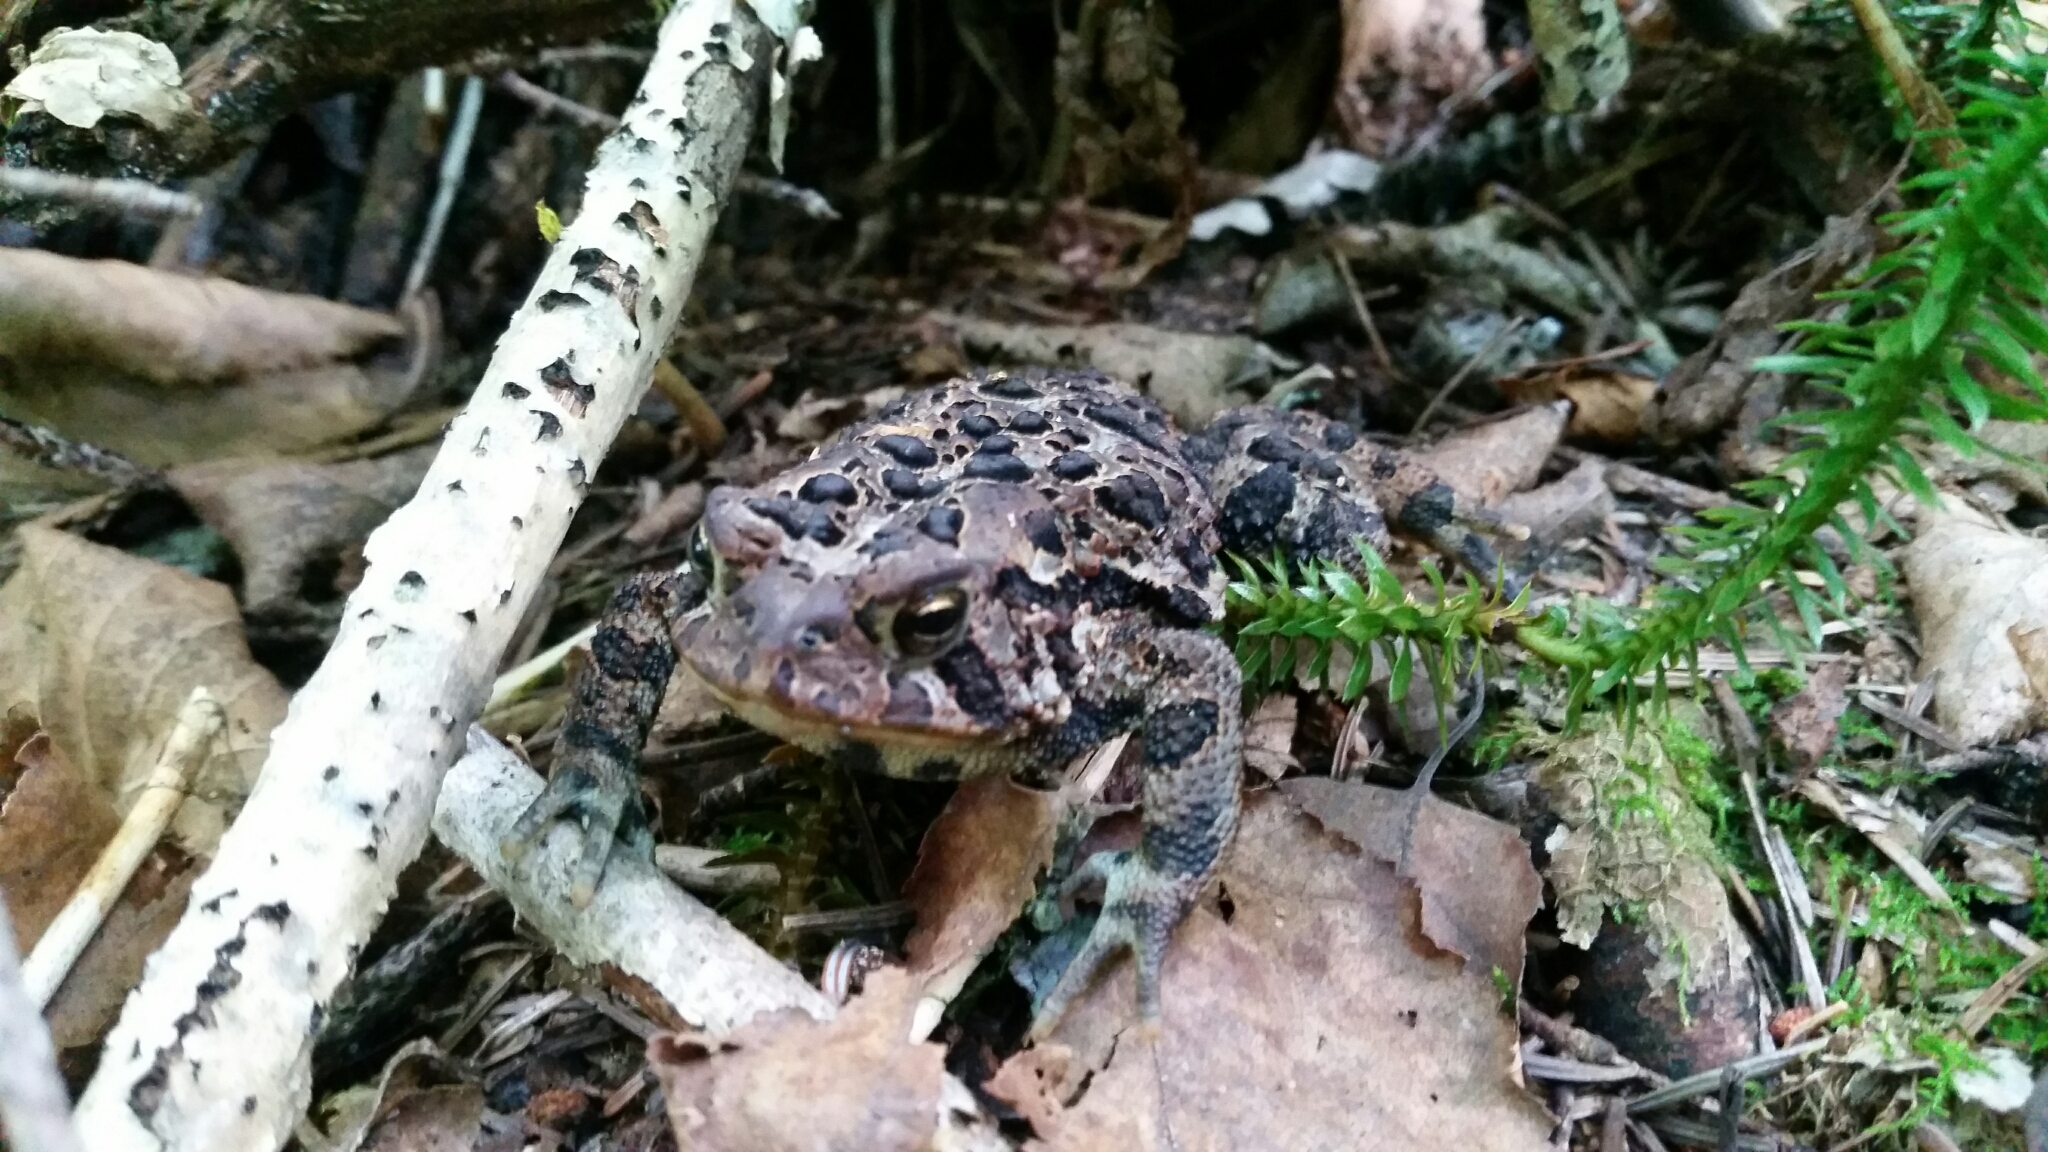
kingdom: Animalia
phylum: Chordata
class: Amphibia
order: Anura
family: Bufonidae
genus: Anaxyrus
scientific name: Anaxyrus americanus
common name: American toad
